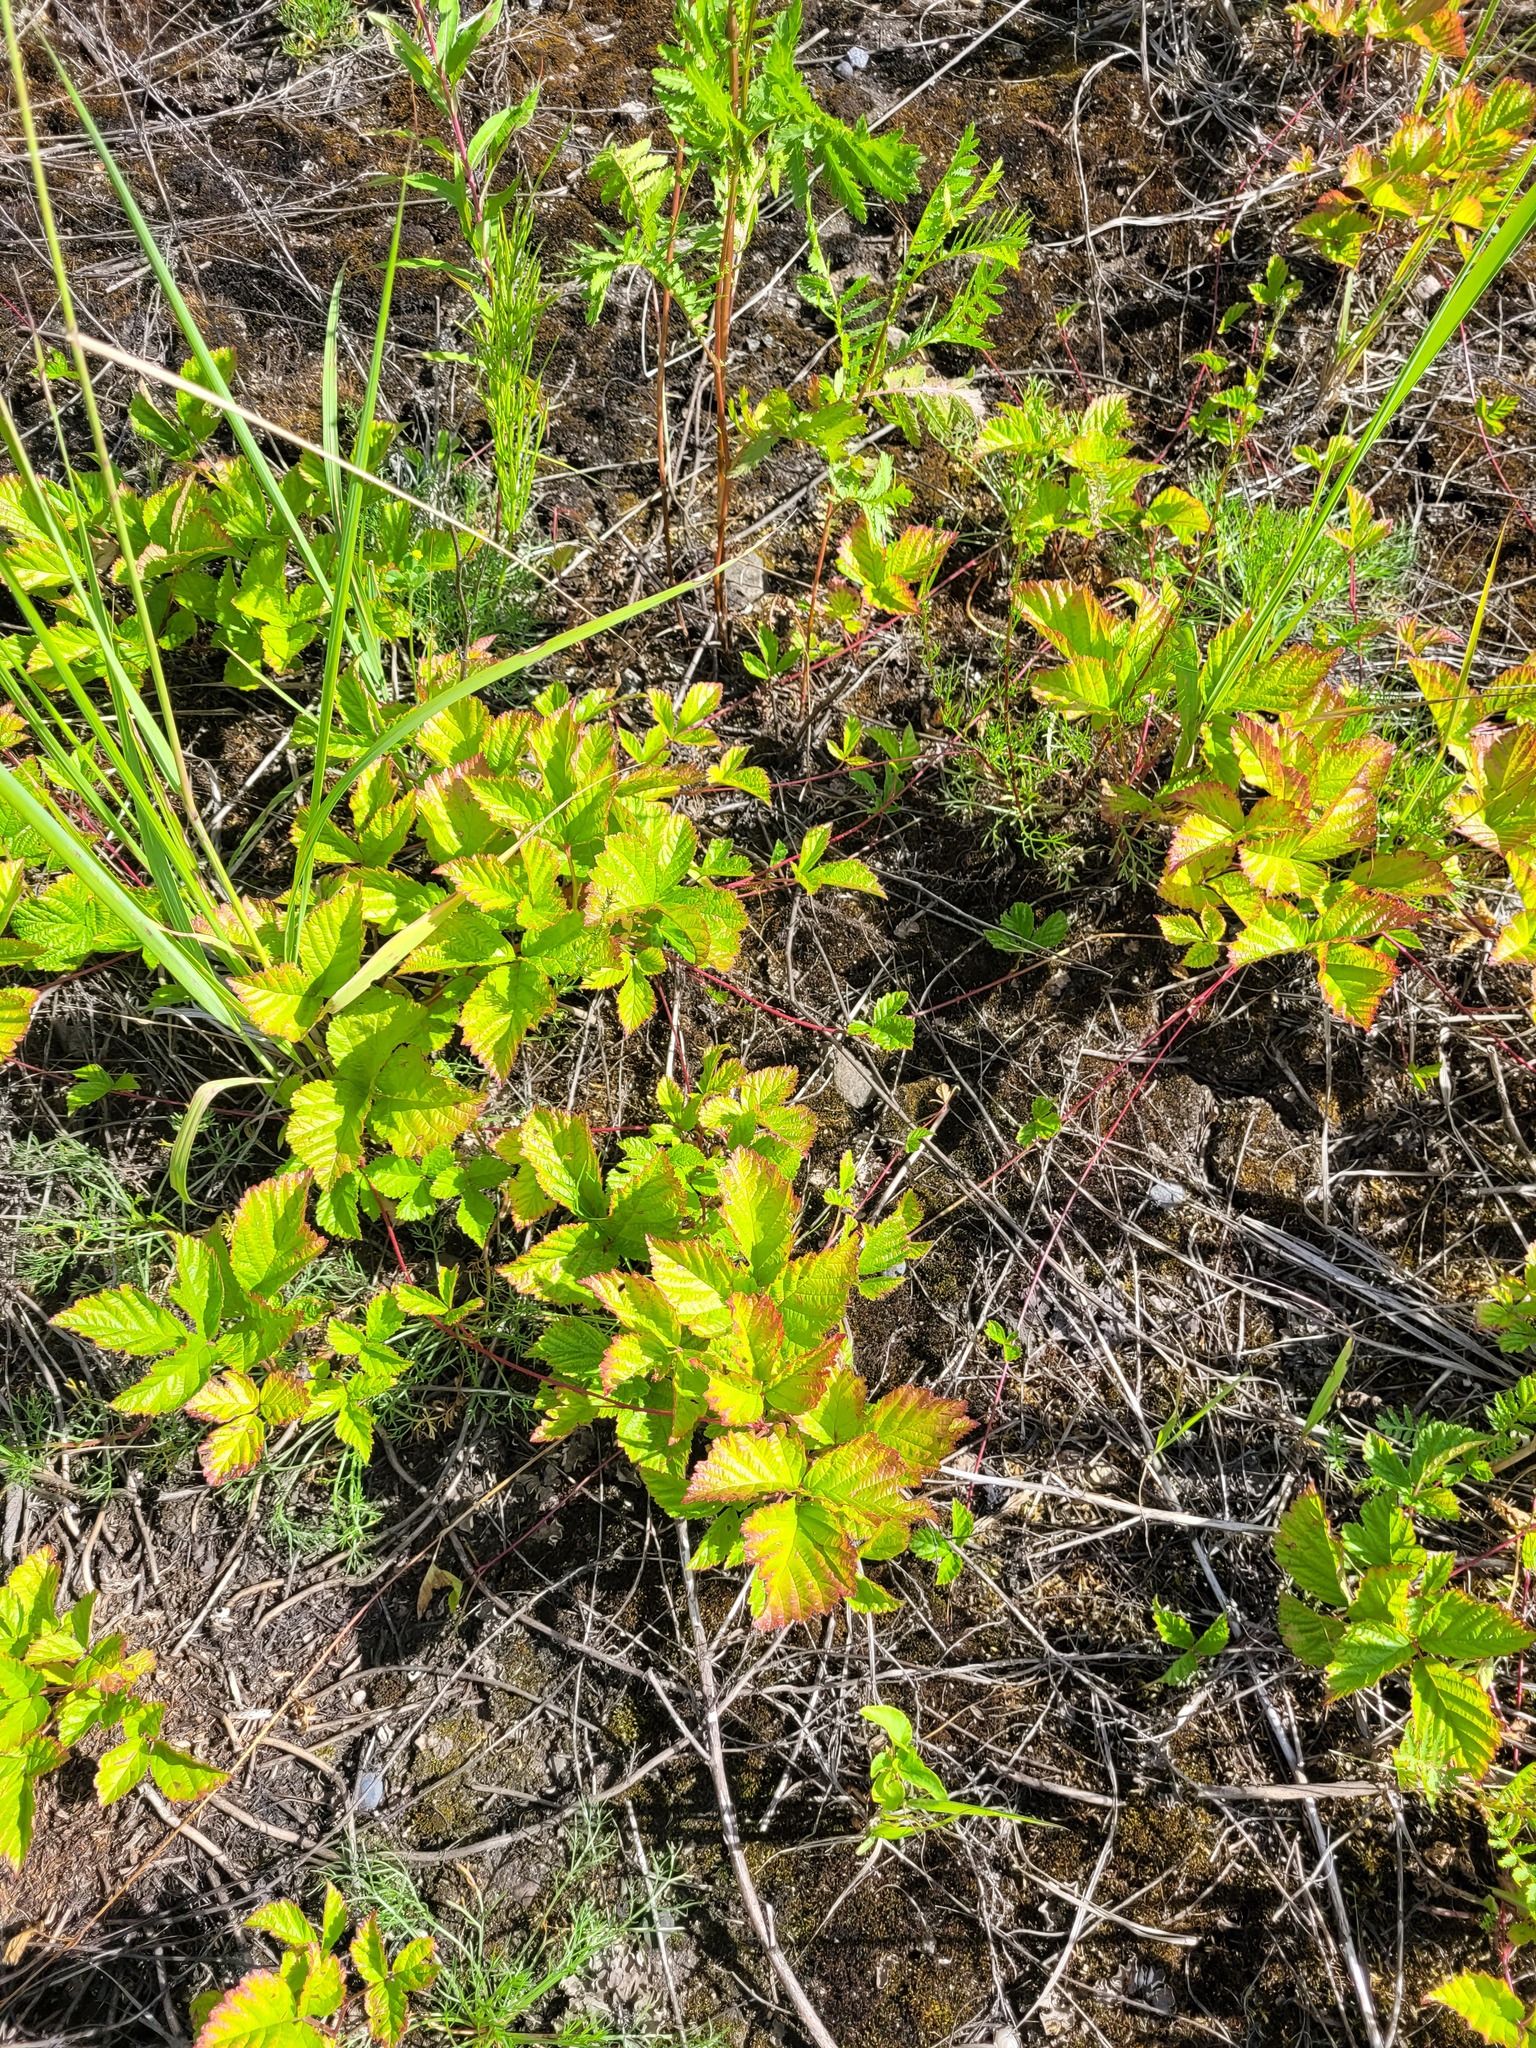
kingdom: Plantae
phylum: Tracheophyta
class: Magnoliopsida
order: Rosales
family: Rosaceae
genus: Rubus
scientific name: Rubus saxatilis
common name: Stone bramble
